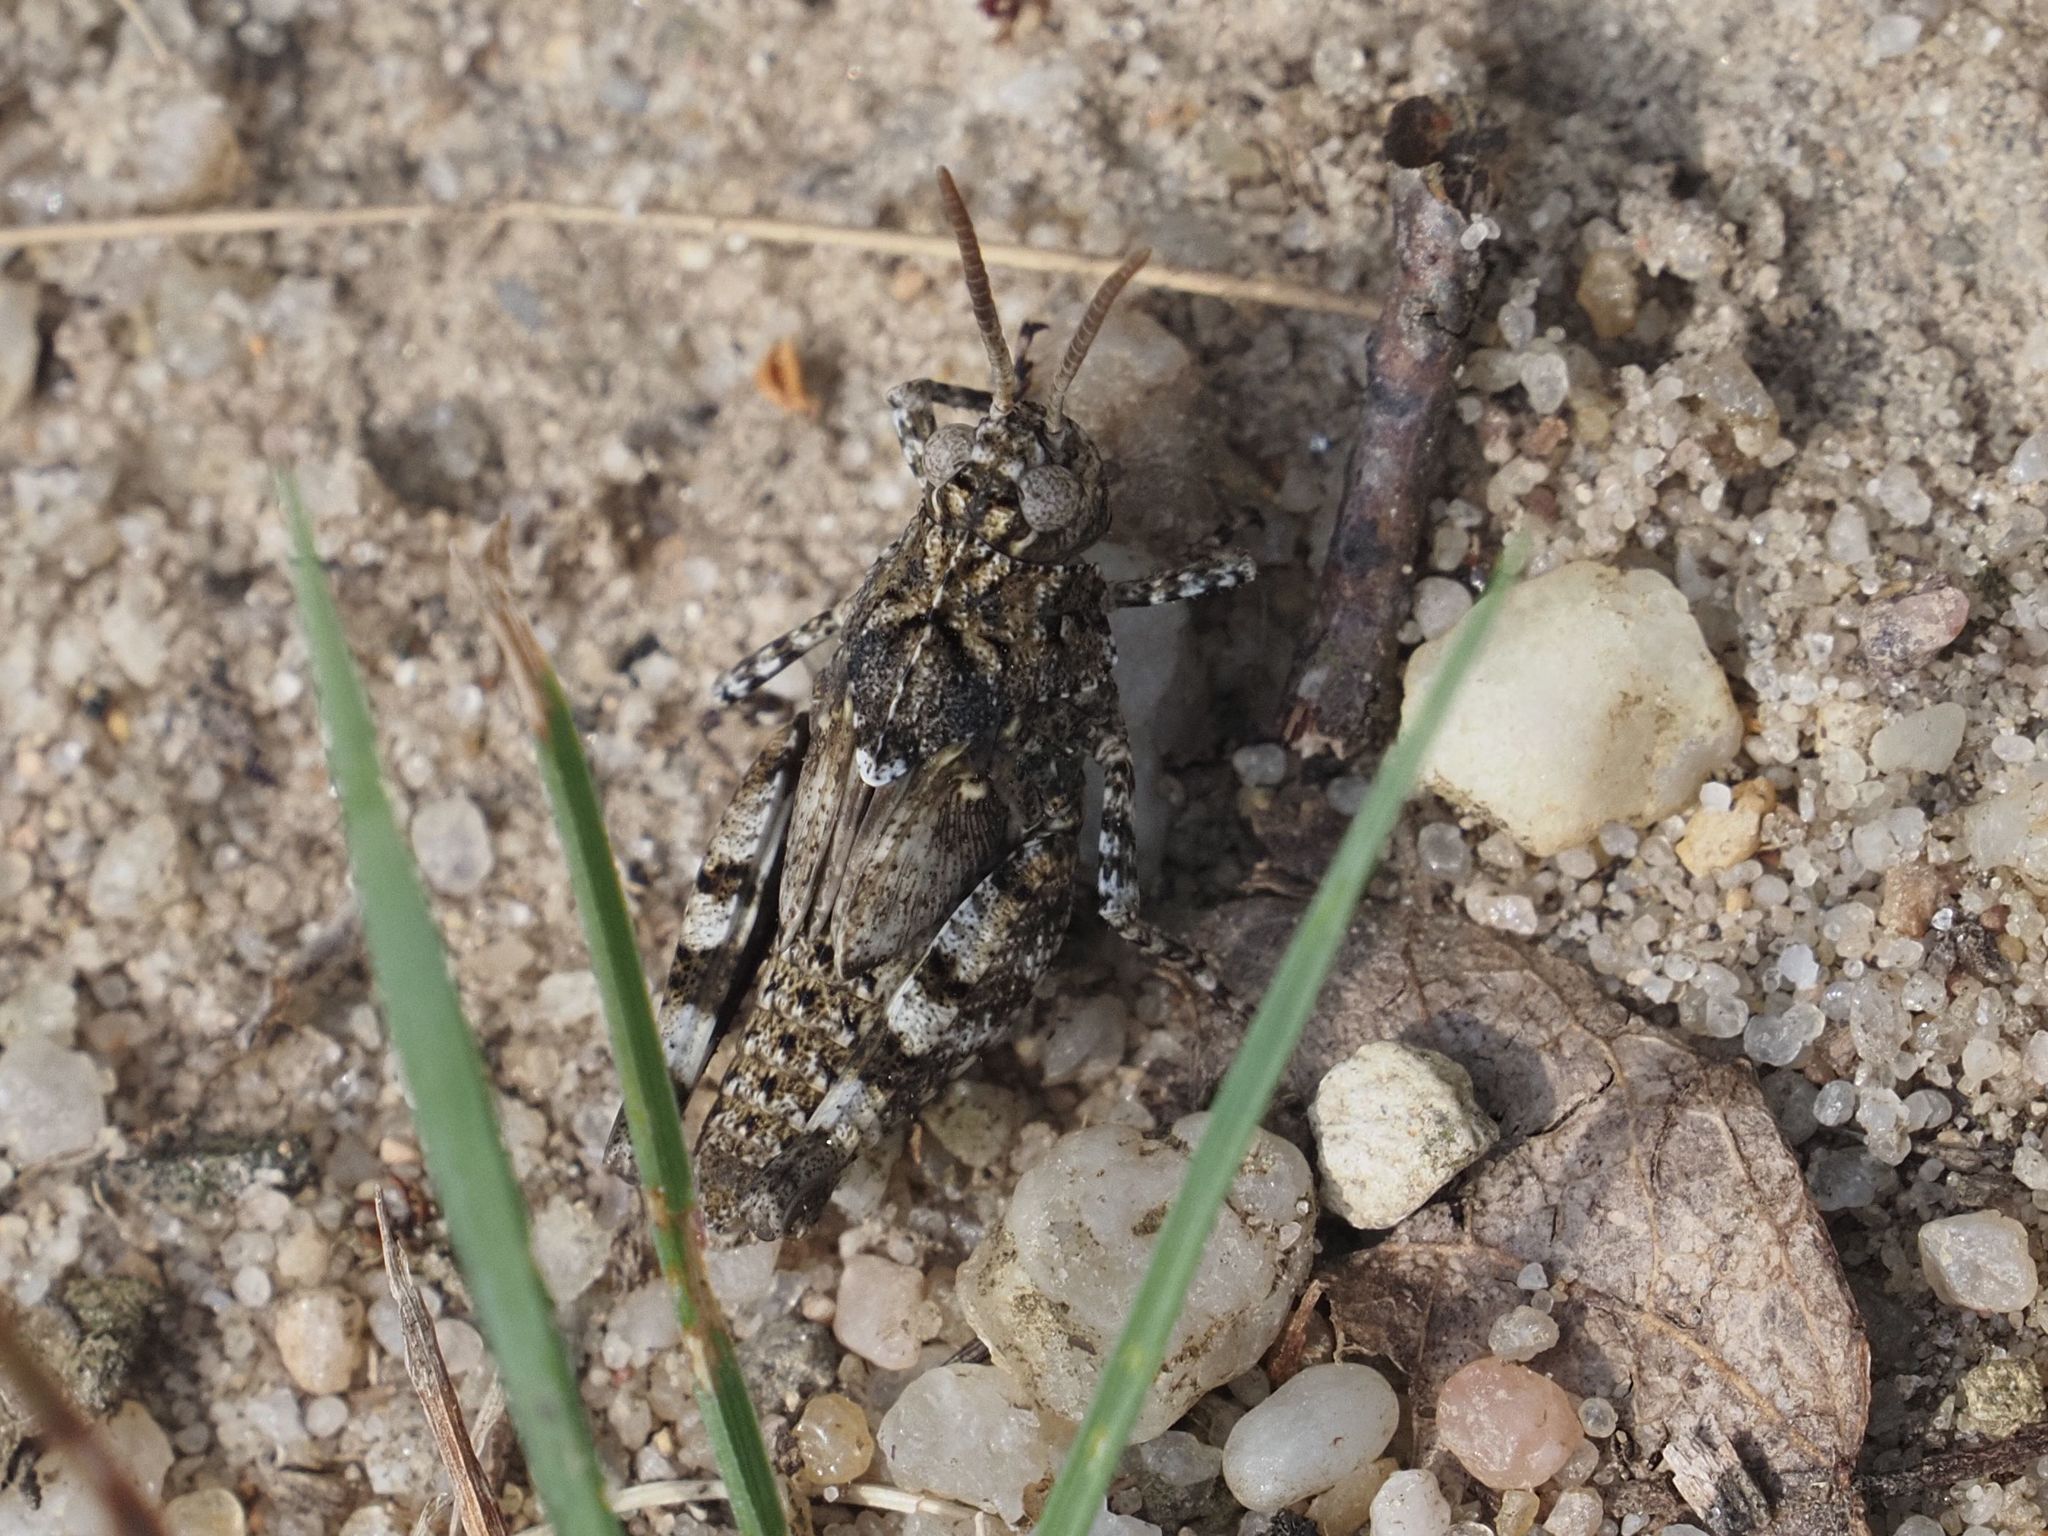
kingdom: Animalia
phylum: Arthropoda
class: Insecta
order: Orthoptera
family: Acrididae
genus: Oedipoda
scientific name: Oedipoda caerulescens
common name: Blue-winged grasshopper
